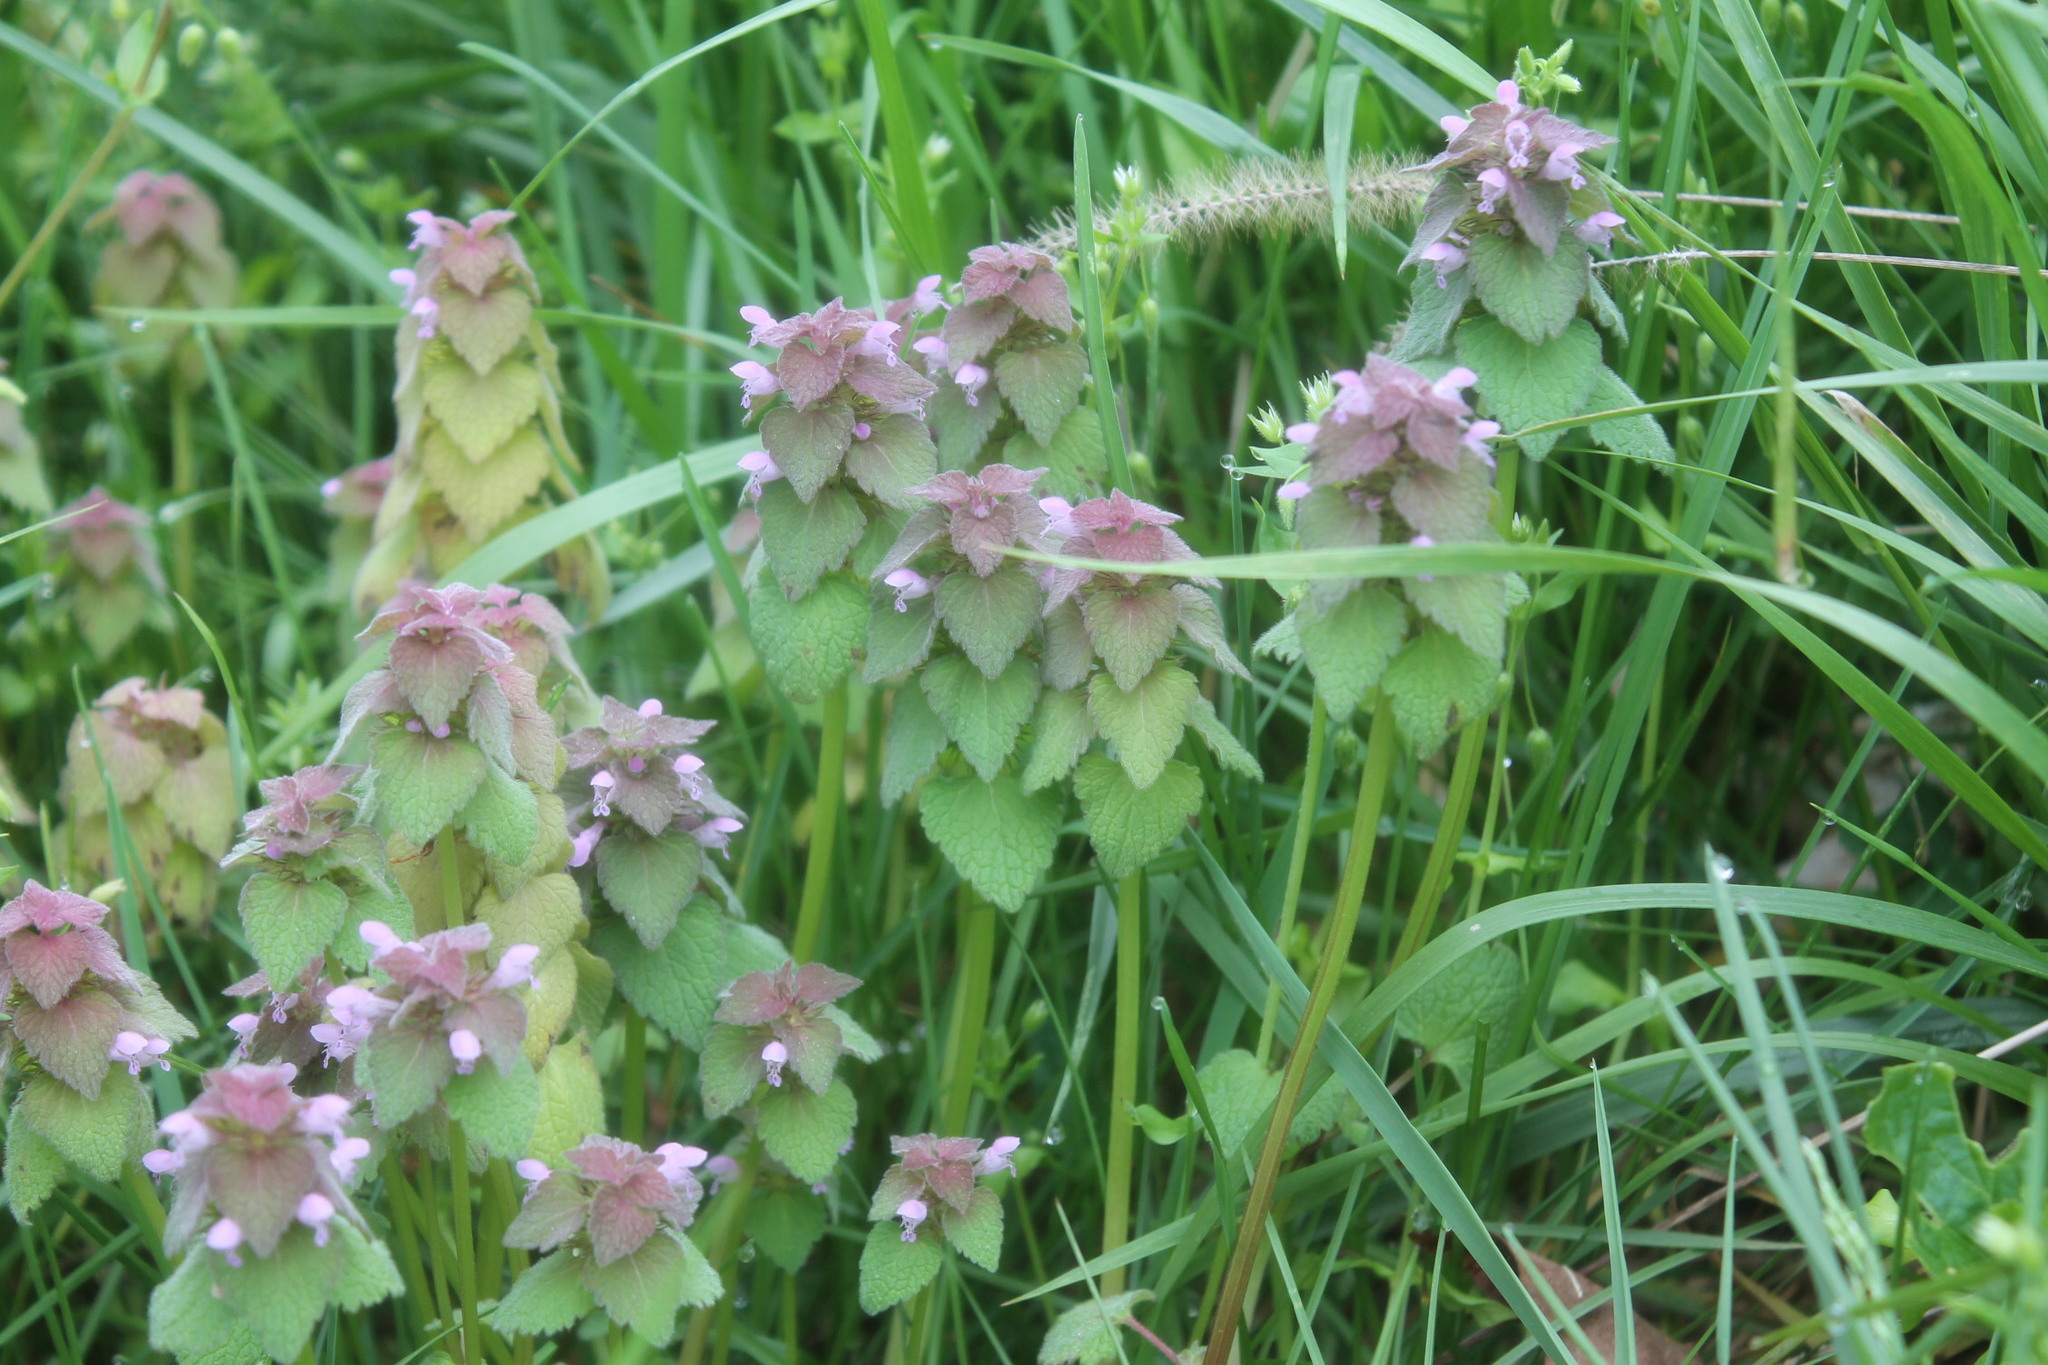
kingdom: Plantae
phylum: Tracheophyta
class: Magnoliopsida
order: Lamiales
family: Lamiaceae
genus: Lamium
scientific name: Lamium purpureum
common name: Red dead-nettle
